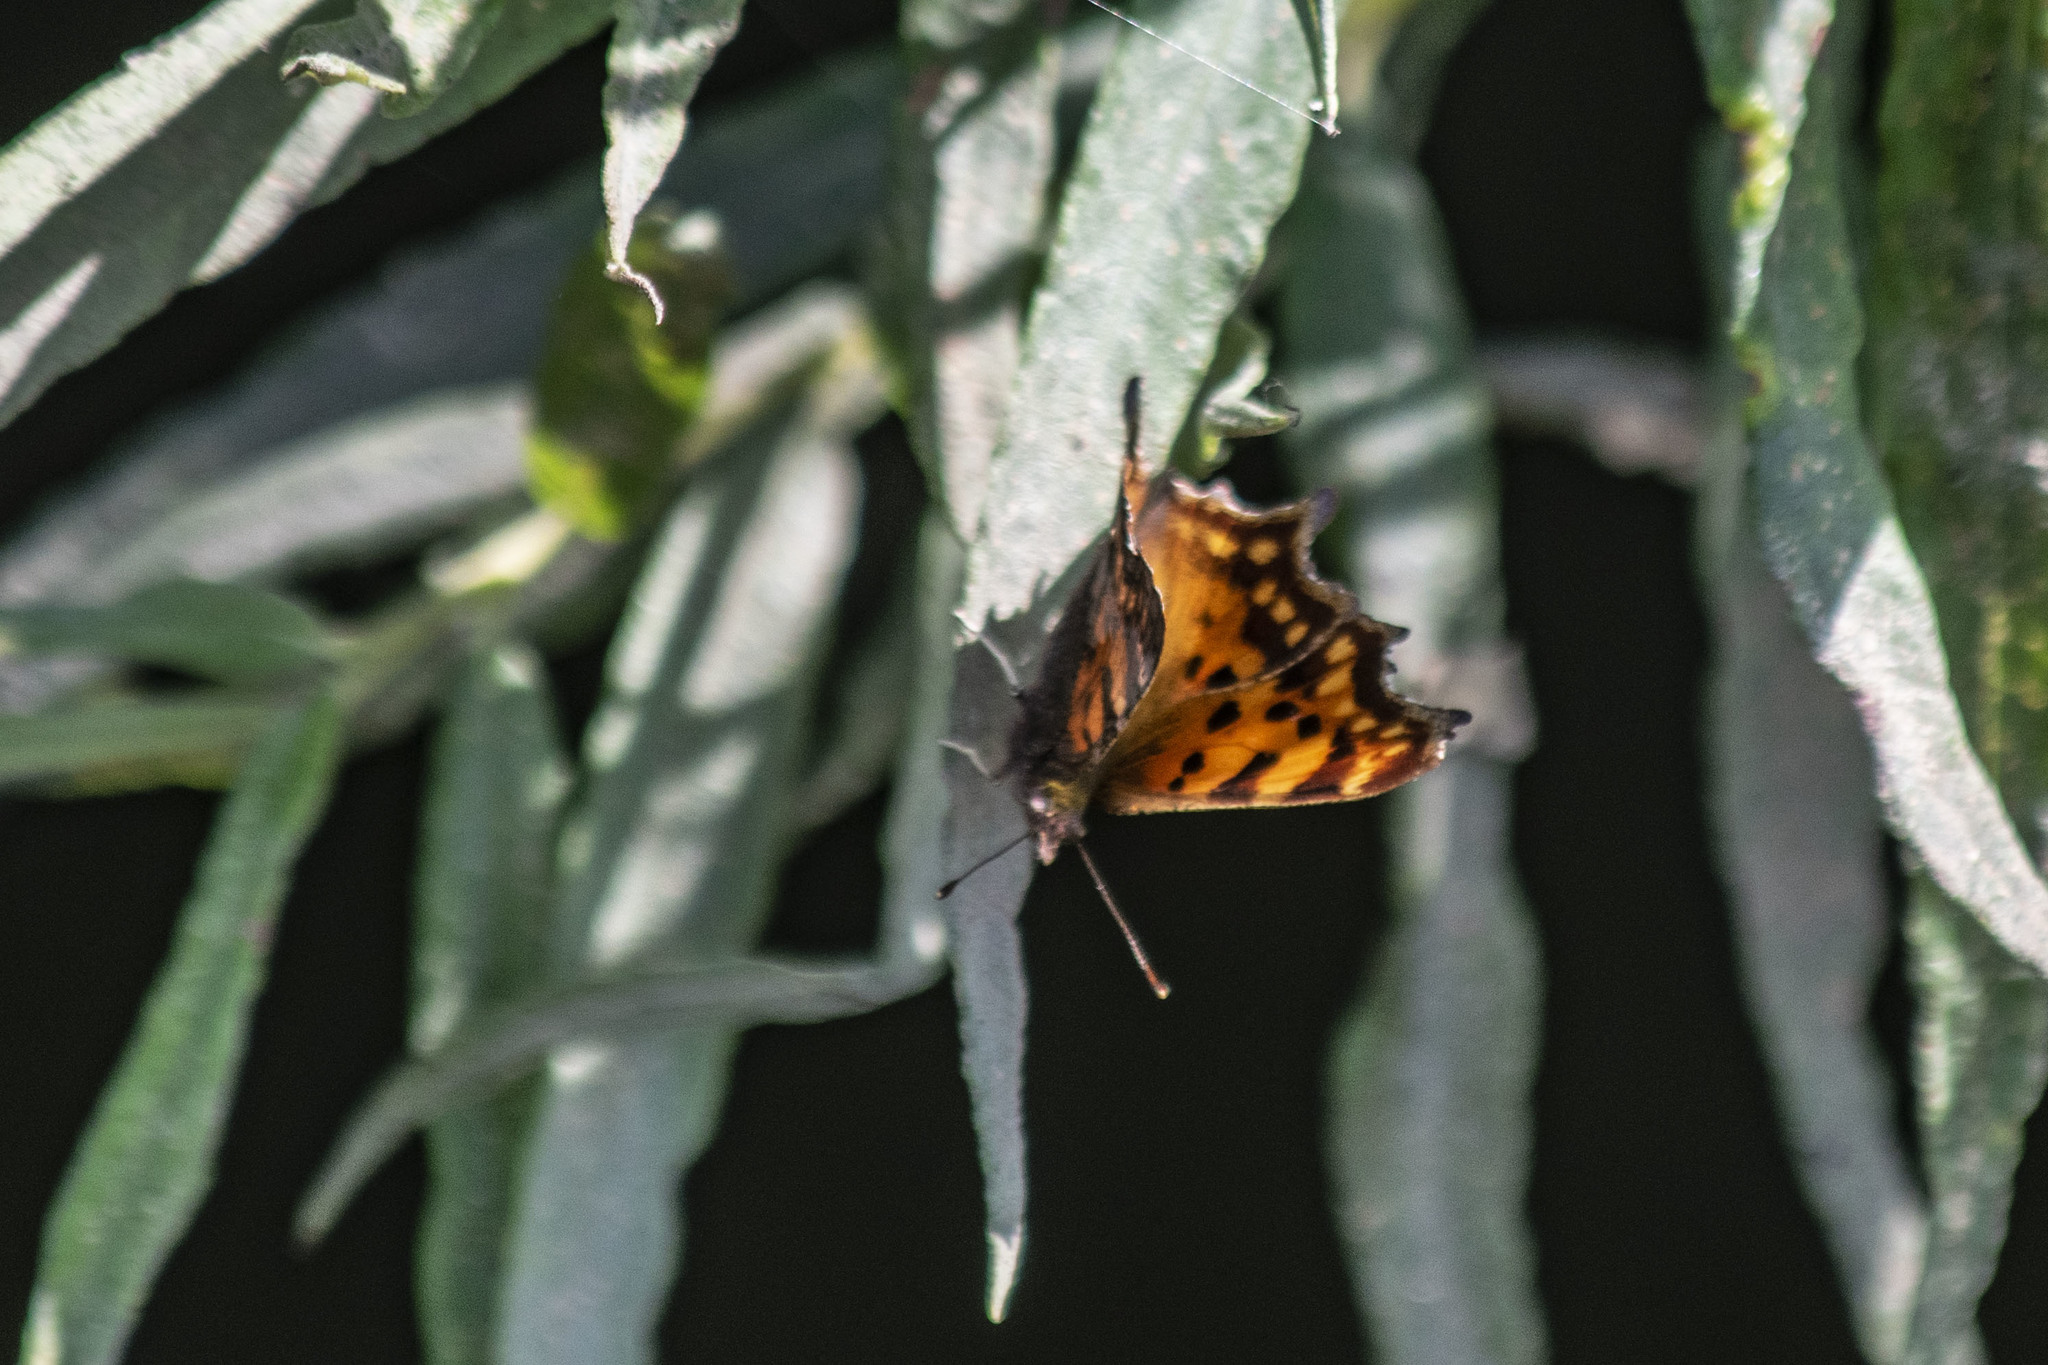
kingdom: Animalia
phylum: Arthropoda
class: Insecta
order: Lepidoptera
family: Nymphalidae
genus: Polygonia
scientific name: Polygonia c-album
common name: Comma
